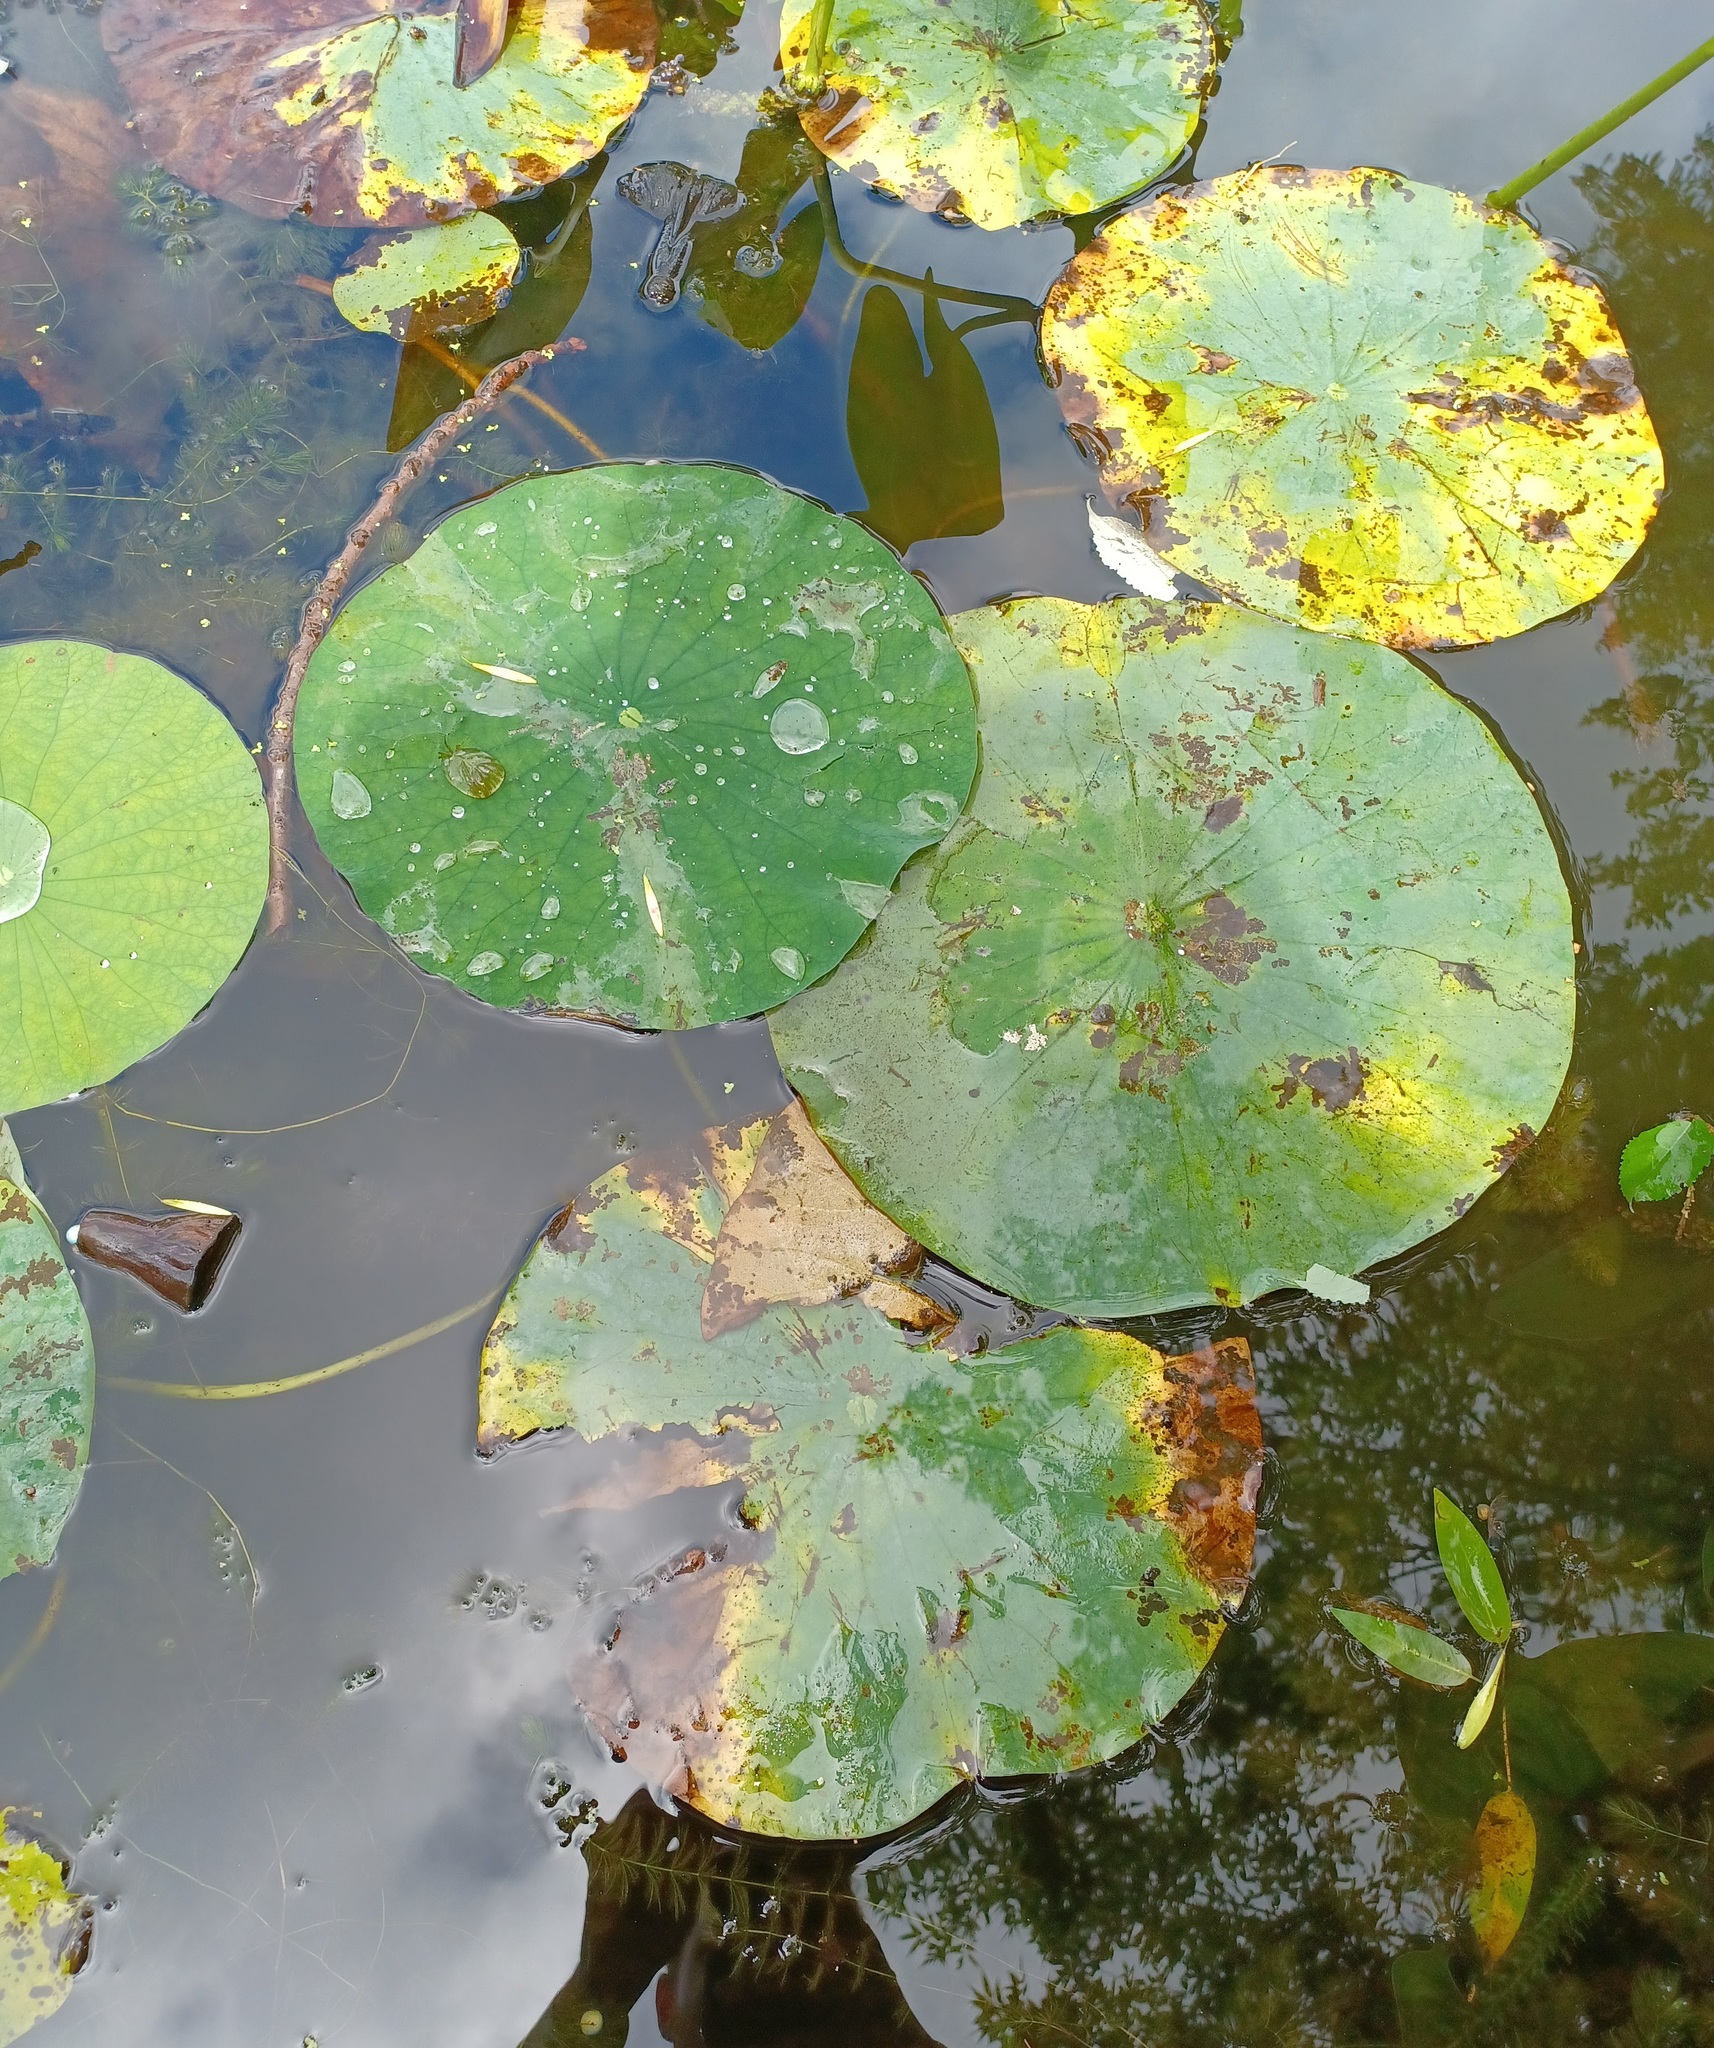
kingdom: Plantae
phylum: Tracheophyta
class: Magnoliopsida
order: Proteales
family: Nelumbonaceae
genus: Nelumbo
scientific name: Nelumbo lutea
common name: American lotus
